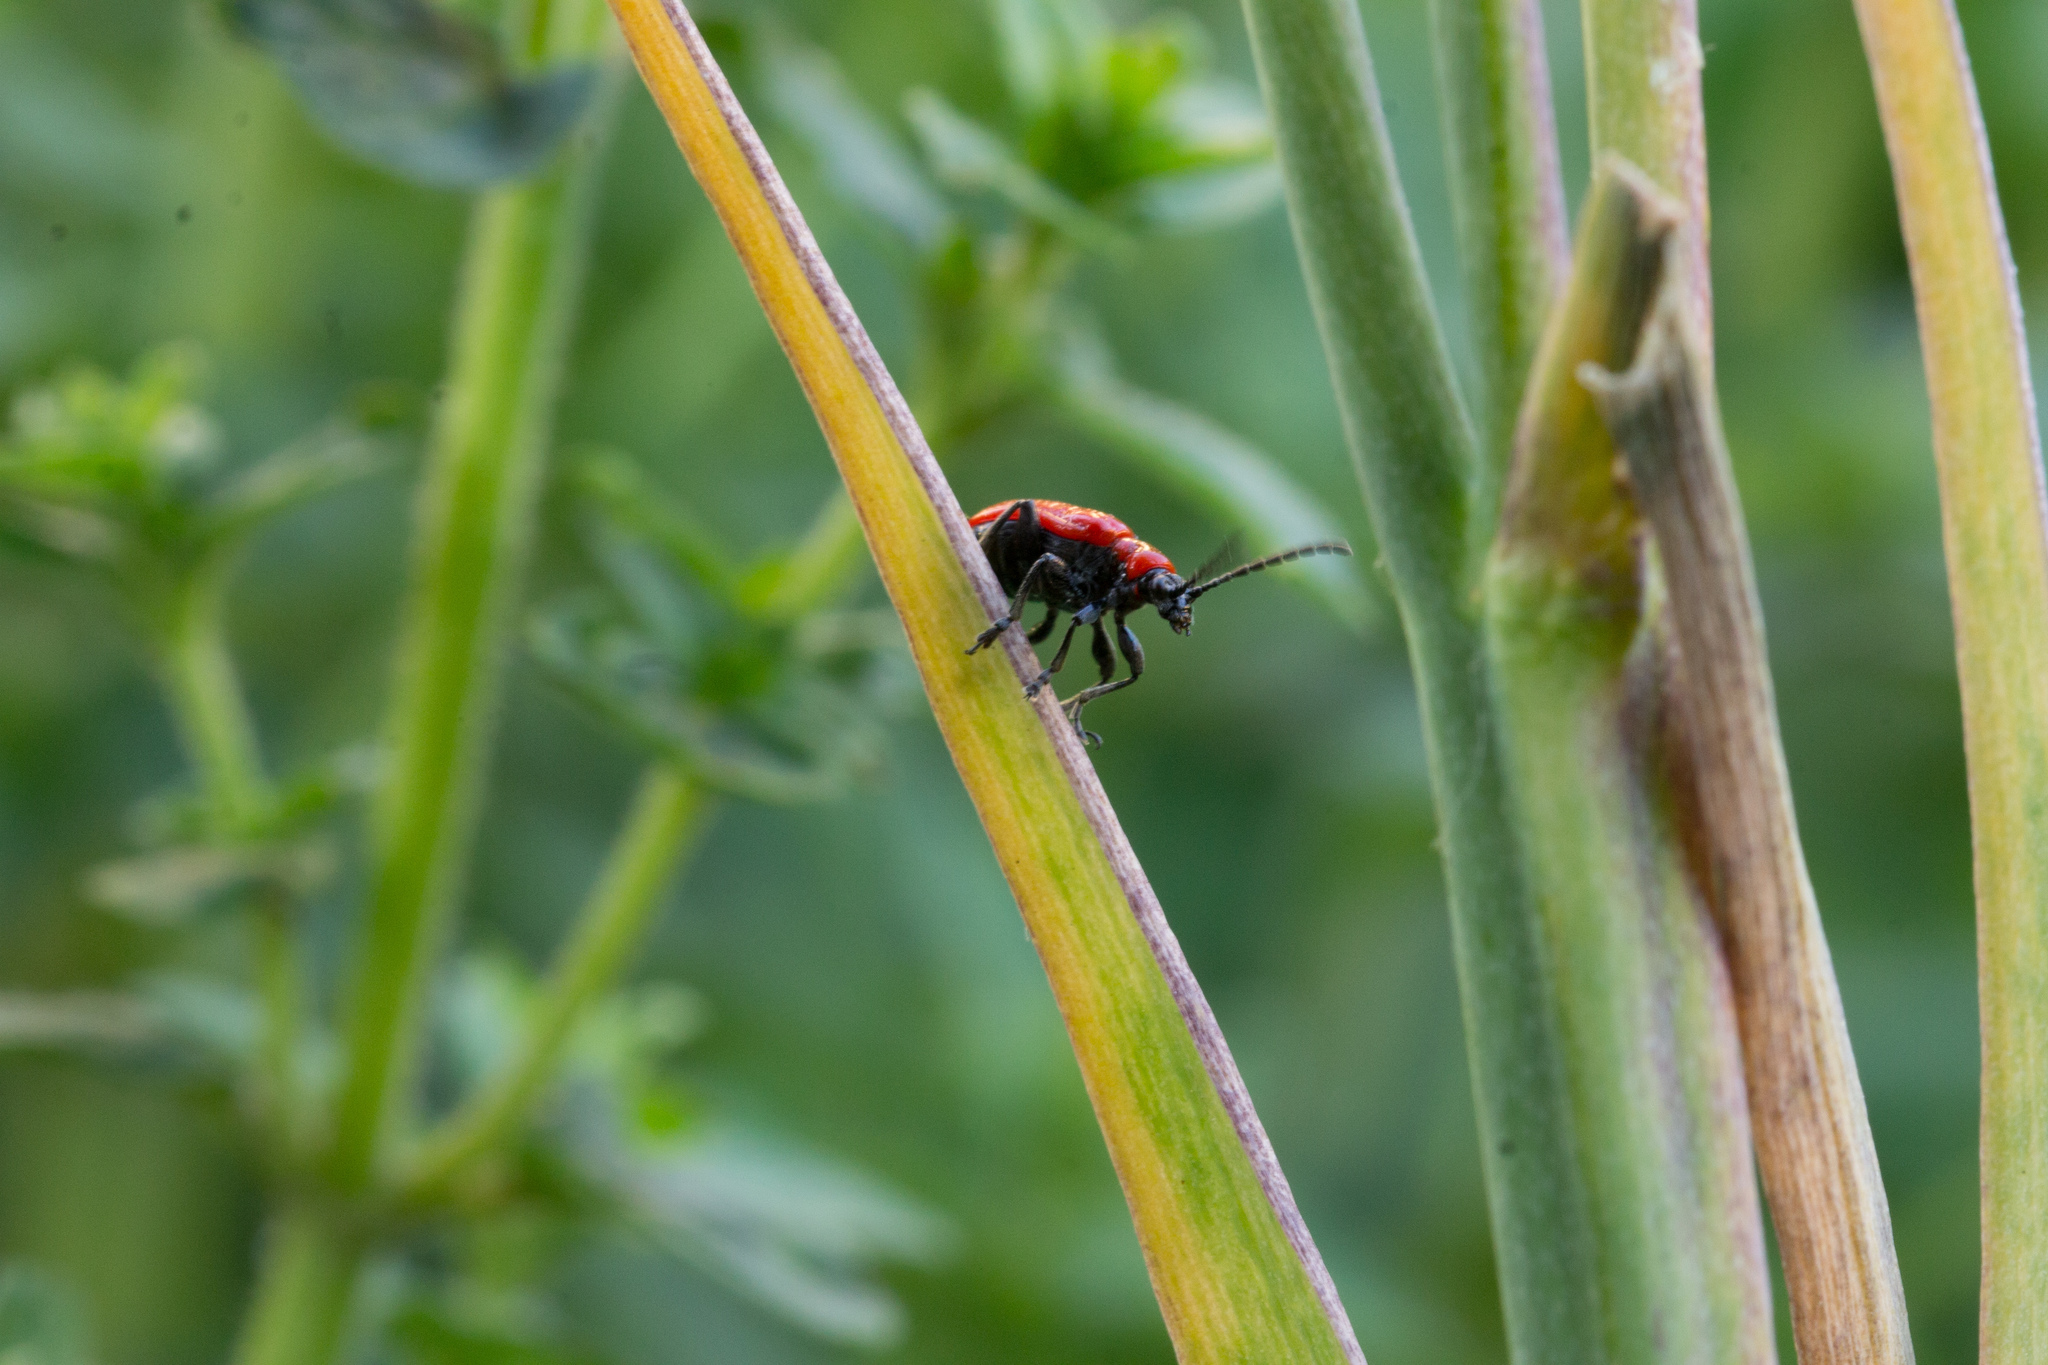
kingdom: Animalia
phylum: Arthropoda
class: Insecta
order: Coleoptera
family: Chrysomelidae
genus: Lilioceris
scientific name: Lilioceris lilii
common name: Lily beetle
